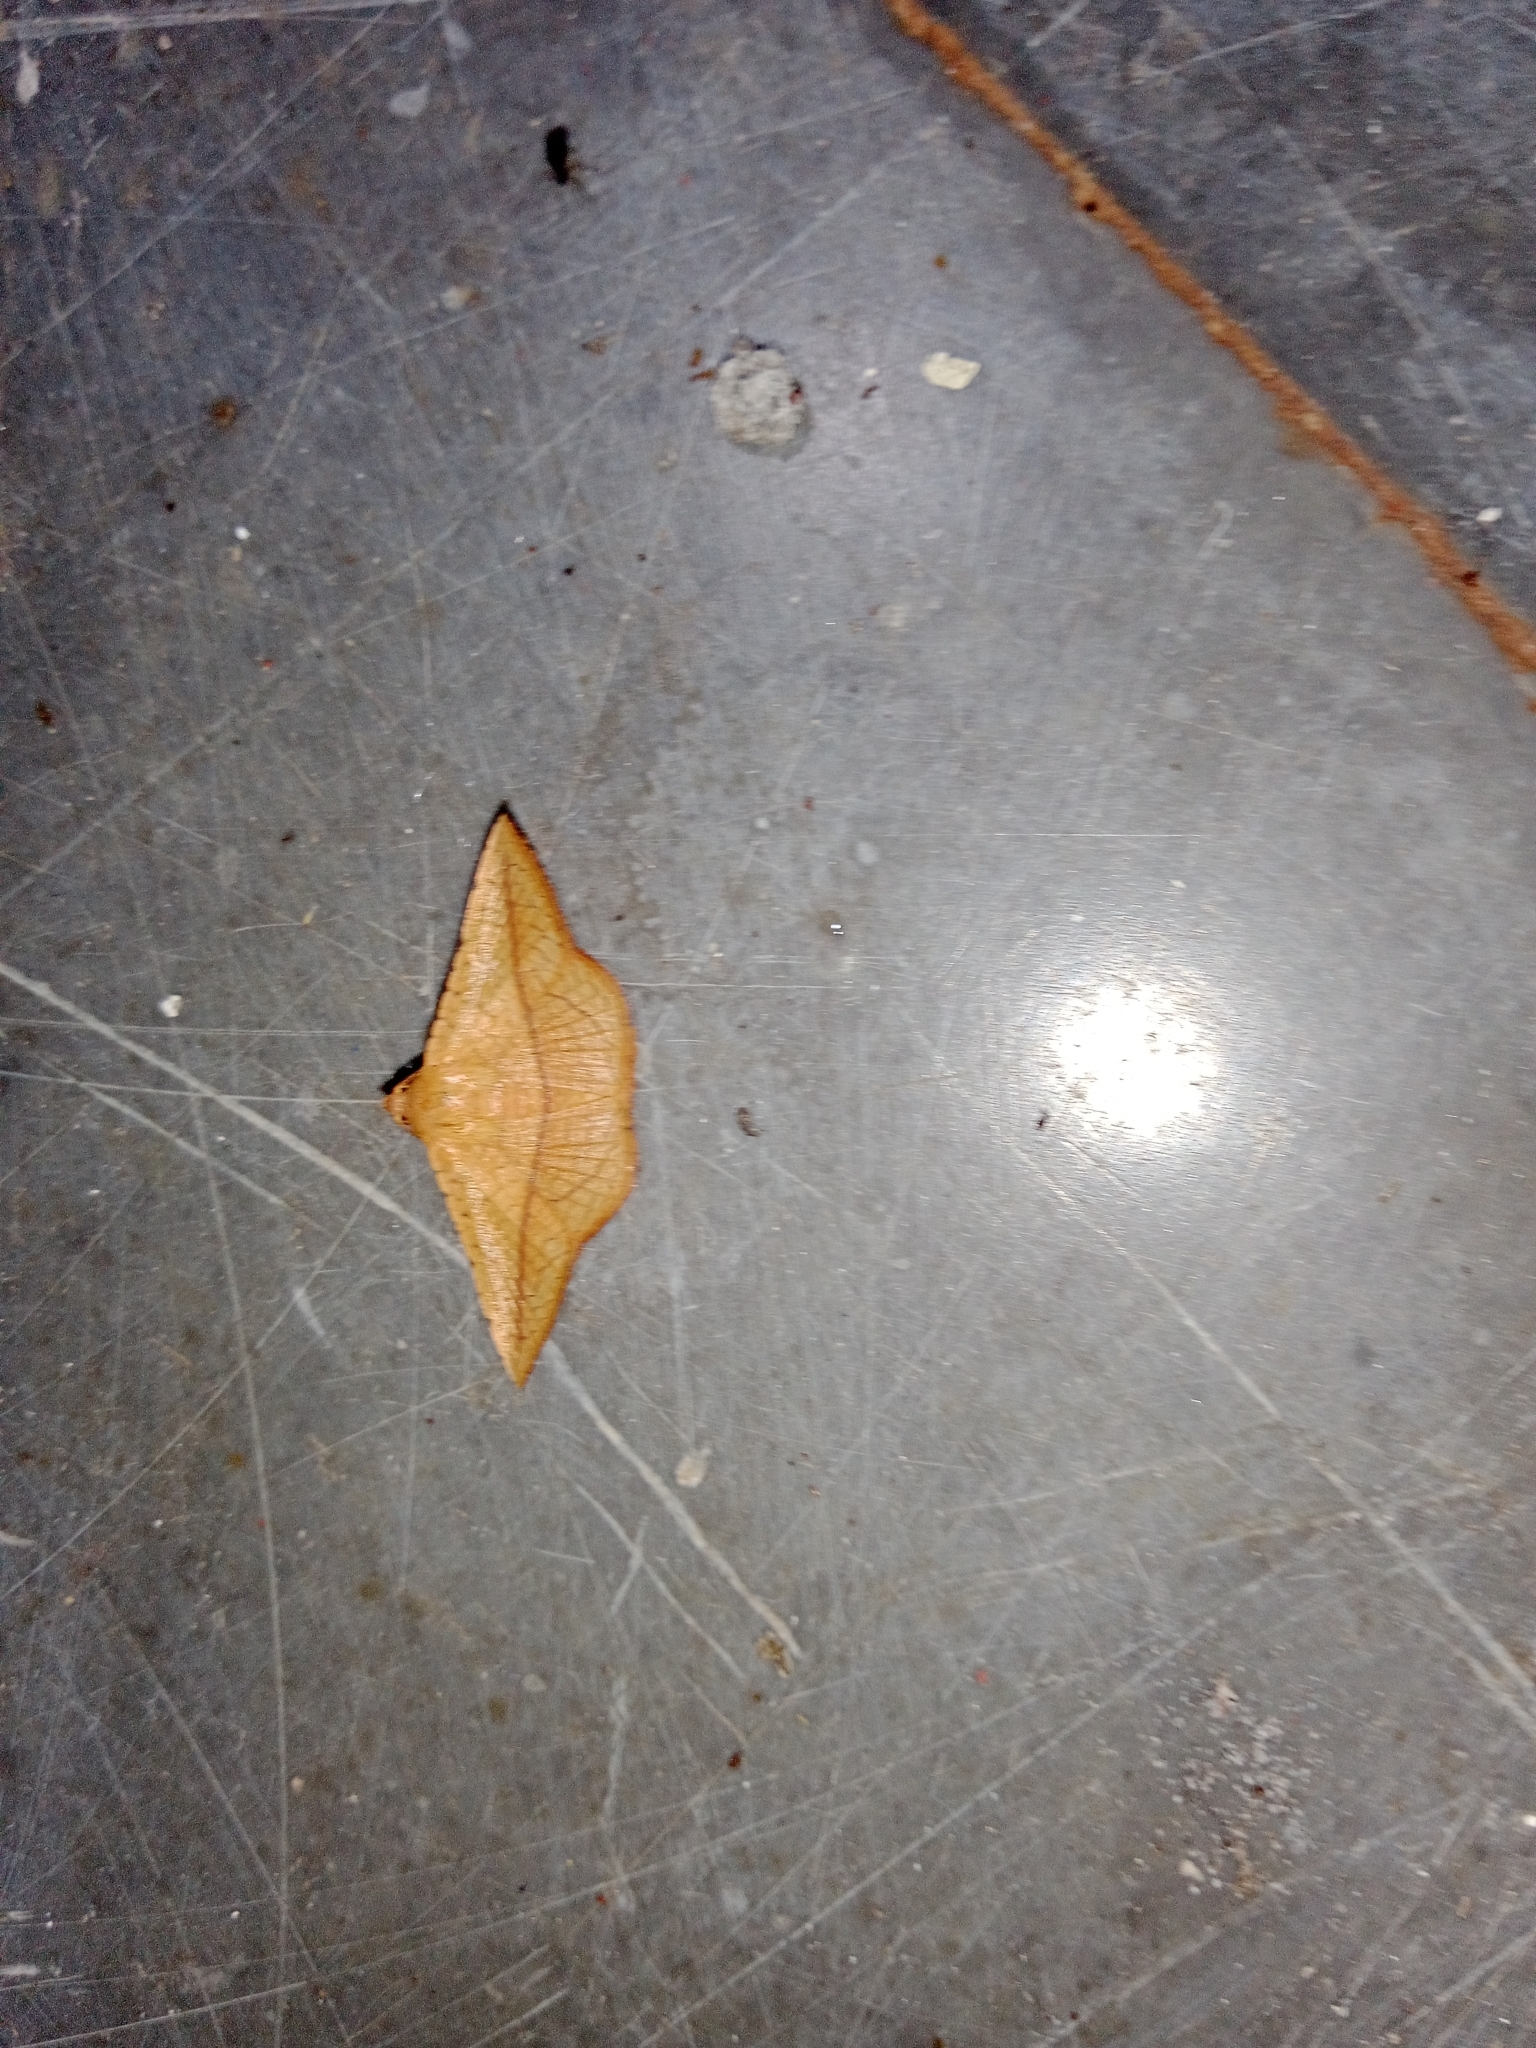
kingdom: Animalia
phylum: Arthropoda
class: Insecta
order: Lepidoptera
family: Thyrididae
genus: Striglina
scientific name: Striglina scitaria
